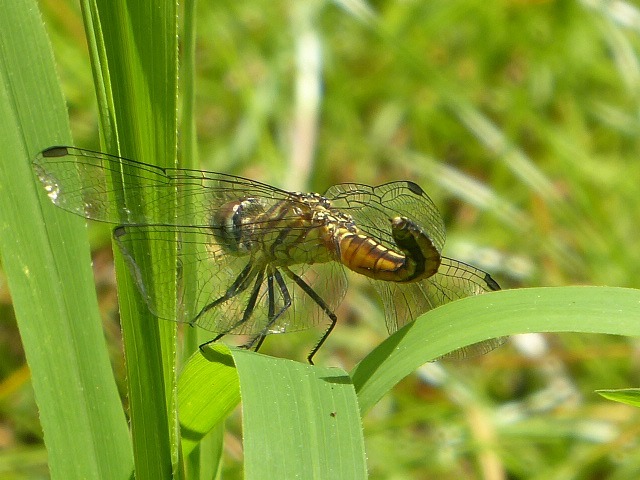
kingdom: Animalia
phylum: Arthropoda
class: Insecta
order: Odonata
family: Libellulidae
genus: Pachydiplax
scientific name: Pachydiplax longipennis
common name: Blue dasher
